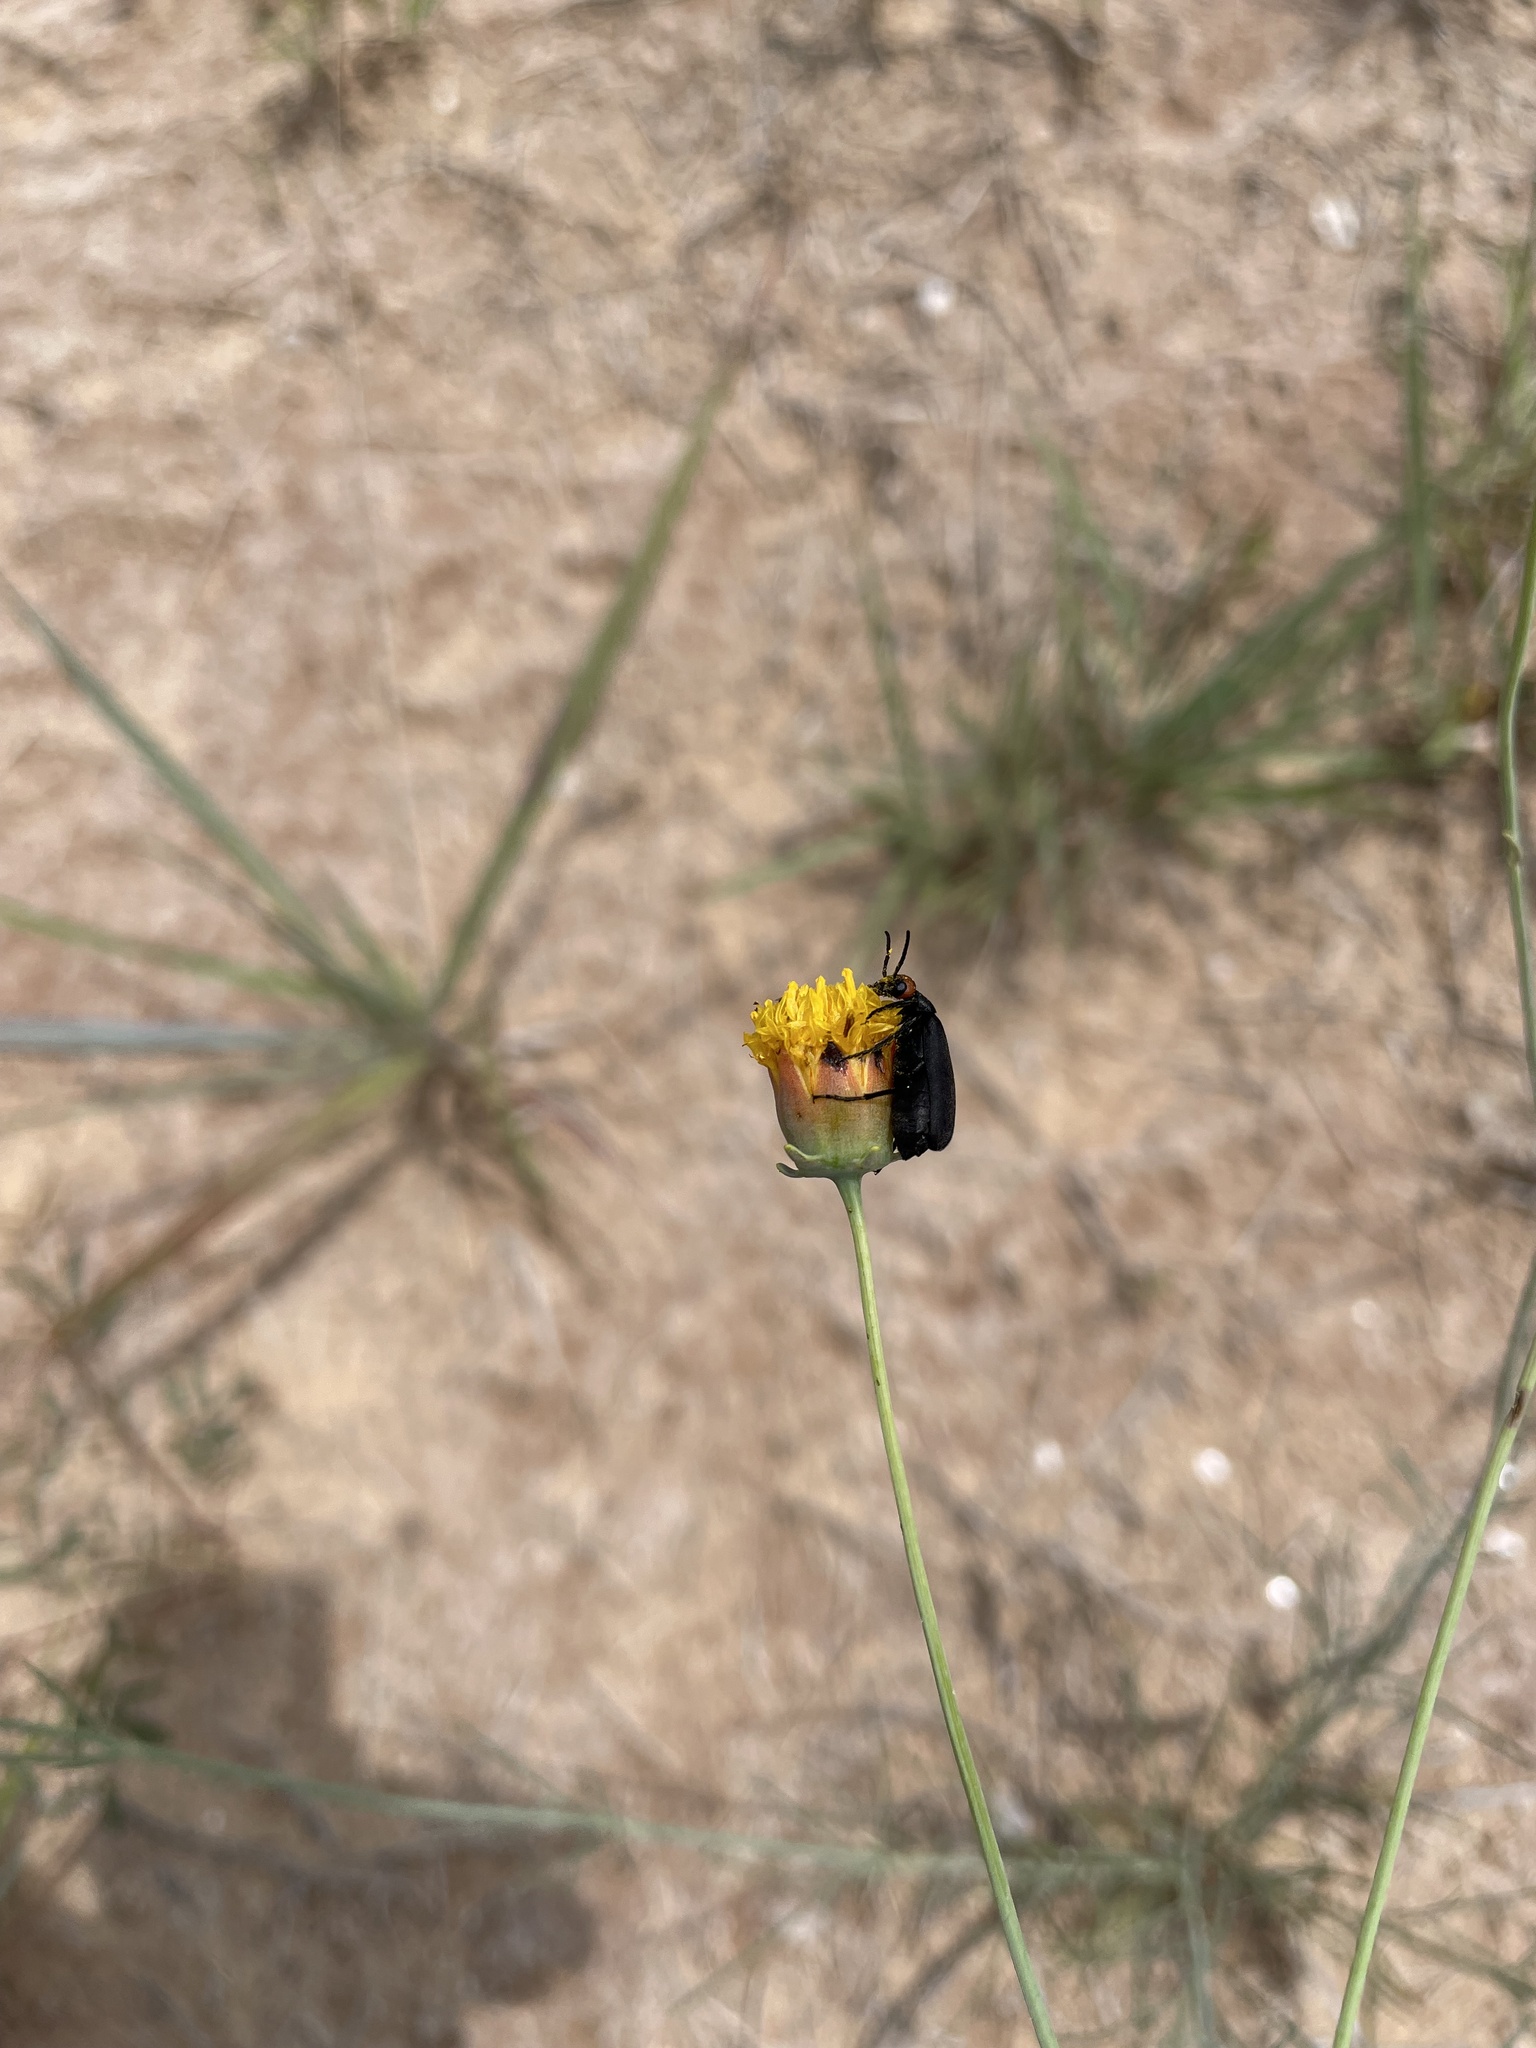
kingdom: Animalia
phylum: Arthropoda
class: Insecta
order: Coleoptera
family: Meloidae
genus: Epicauta
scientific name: Epicauta atrata
